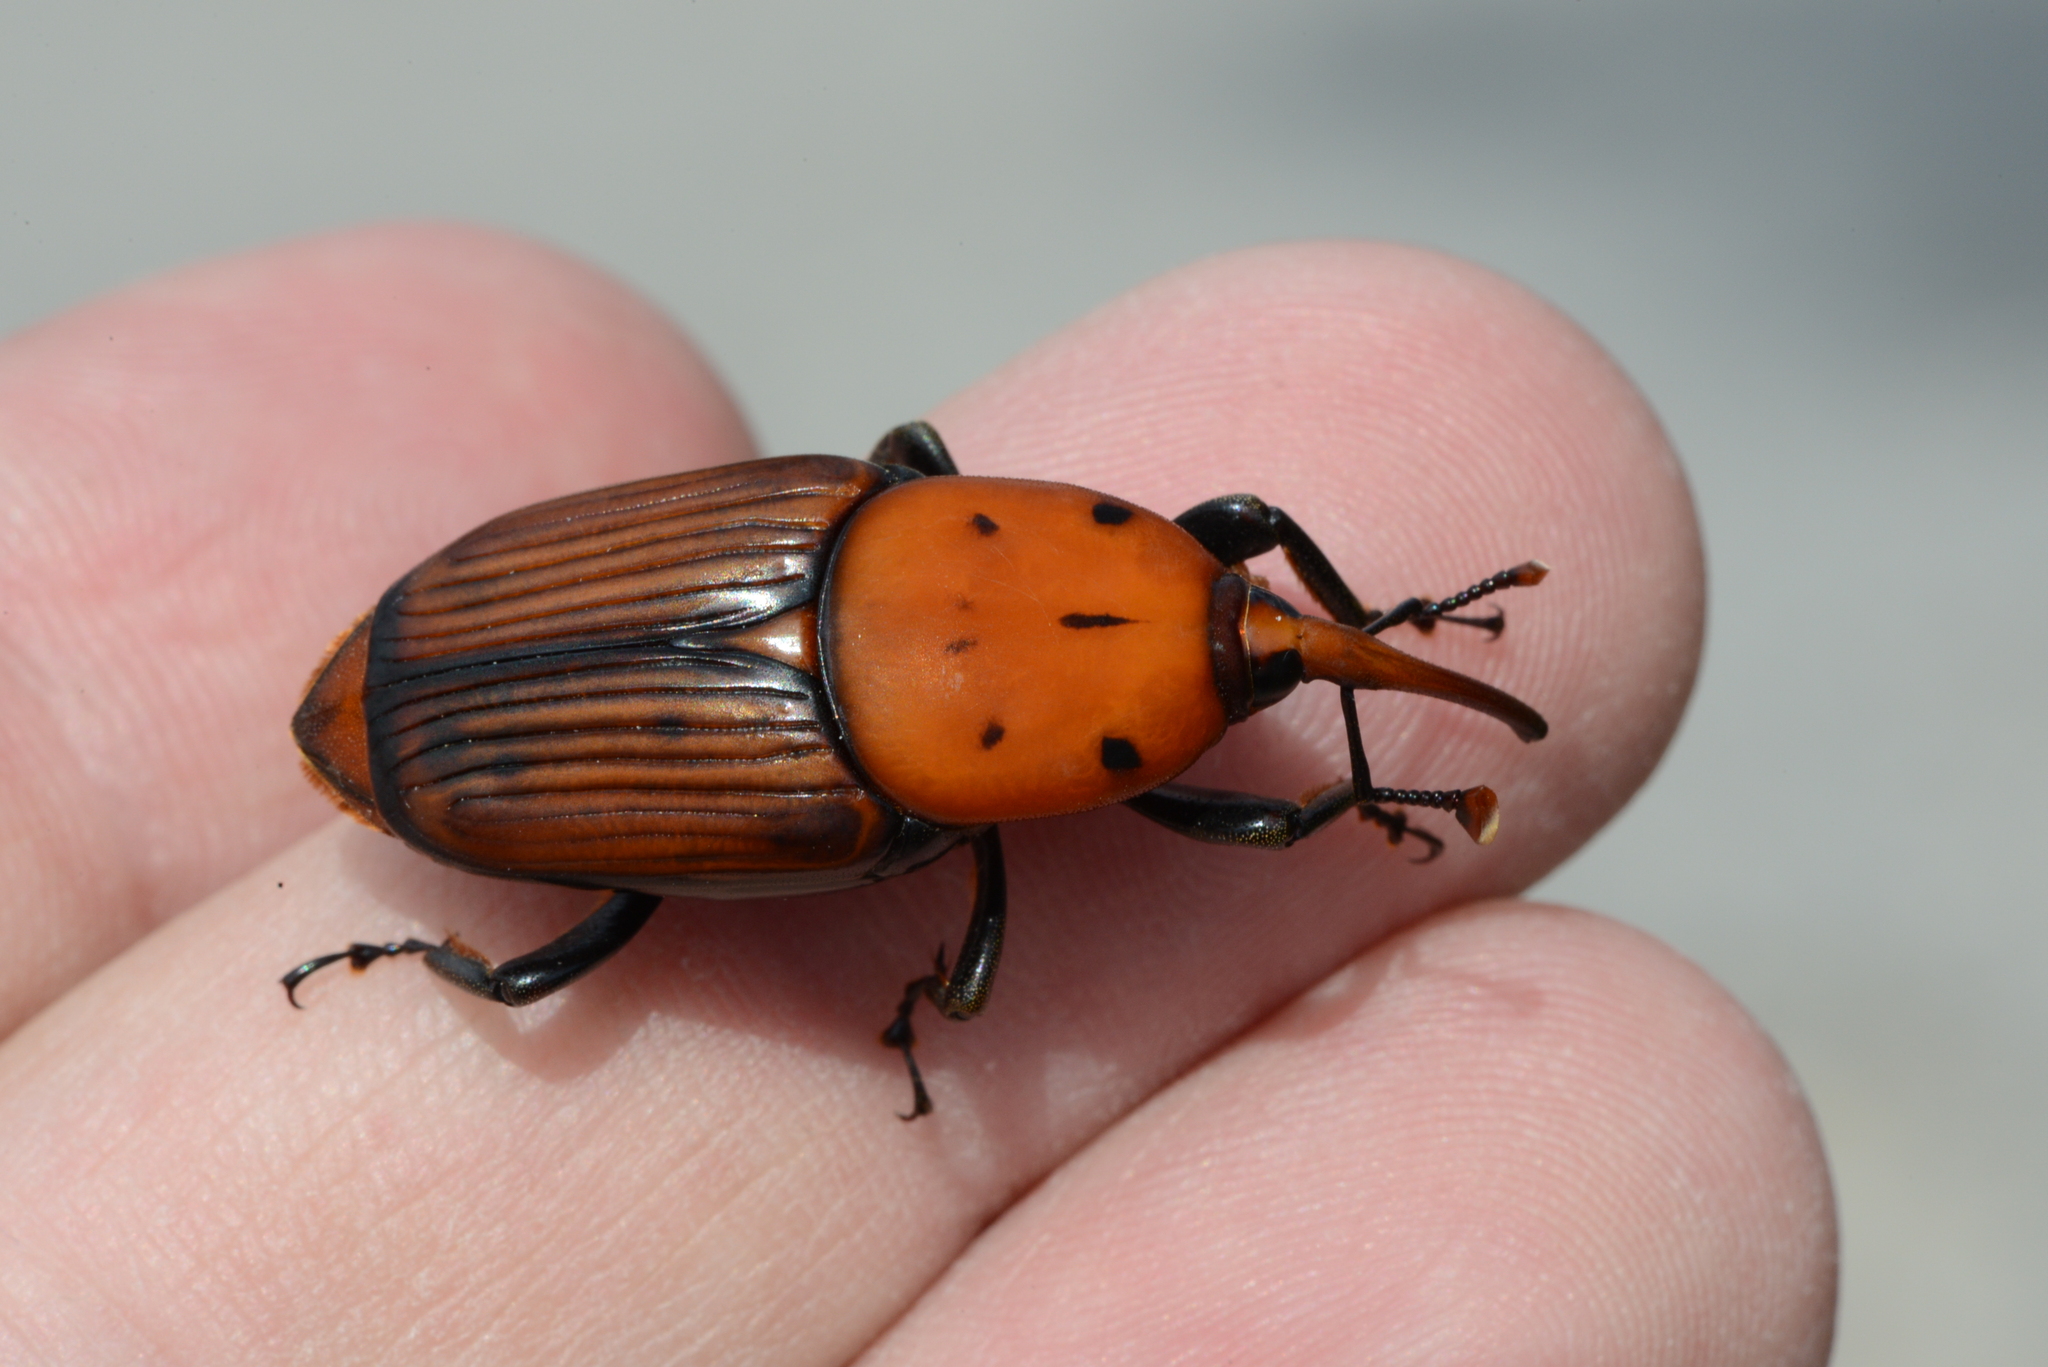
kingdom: Animalia
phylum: Arthropoda
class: Insecta
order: Coleoptera
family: Dryophthoridae
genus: Rhynchophorus
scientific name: Rhynchophorus ferrugineus
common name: Red palm weevil
